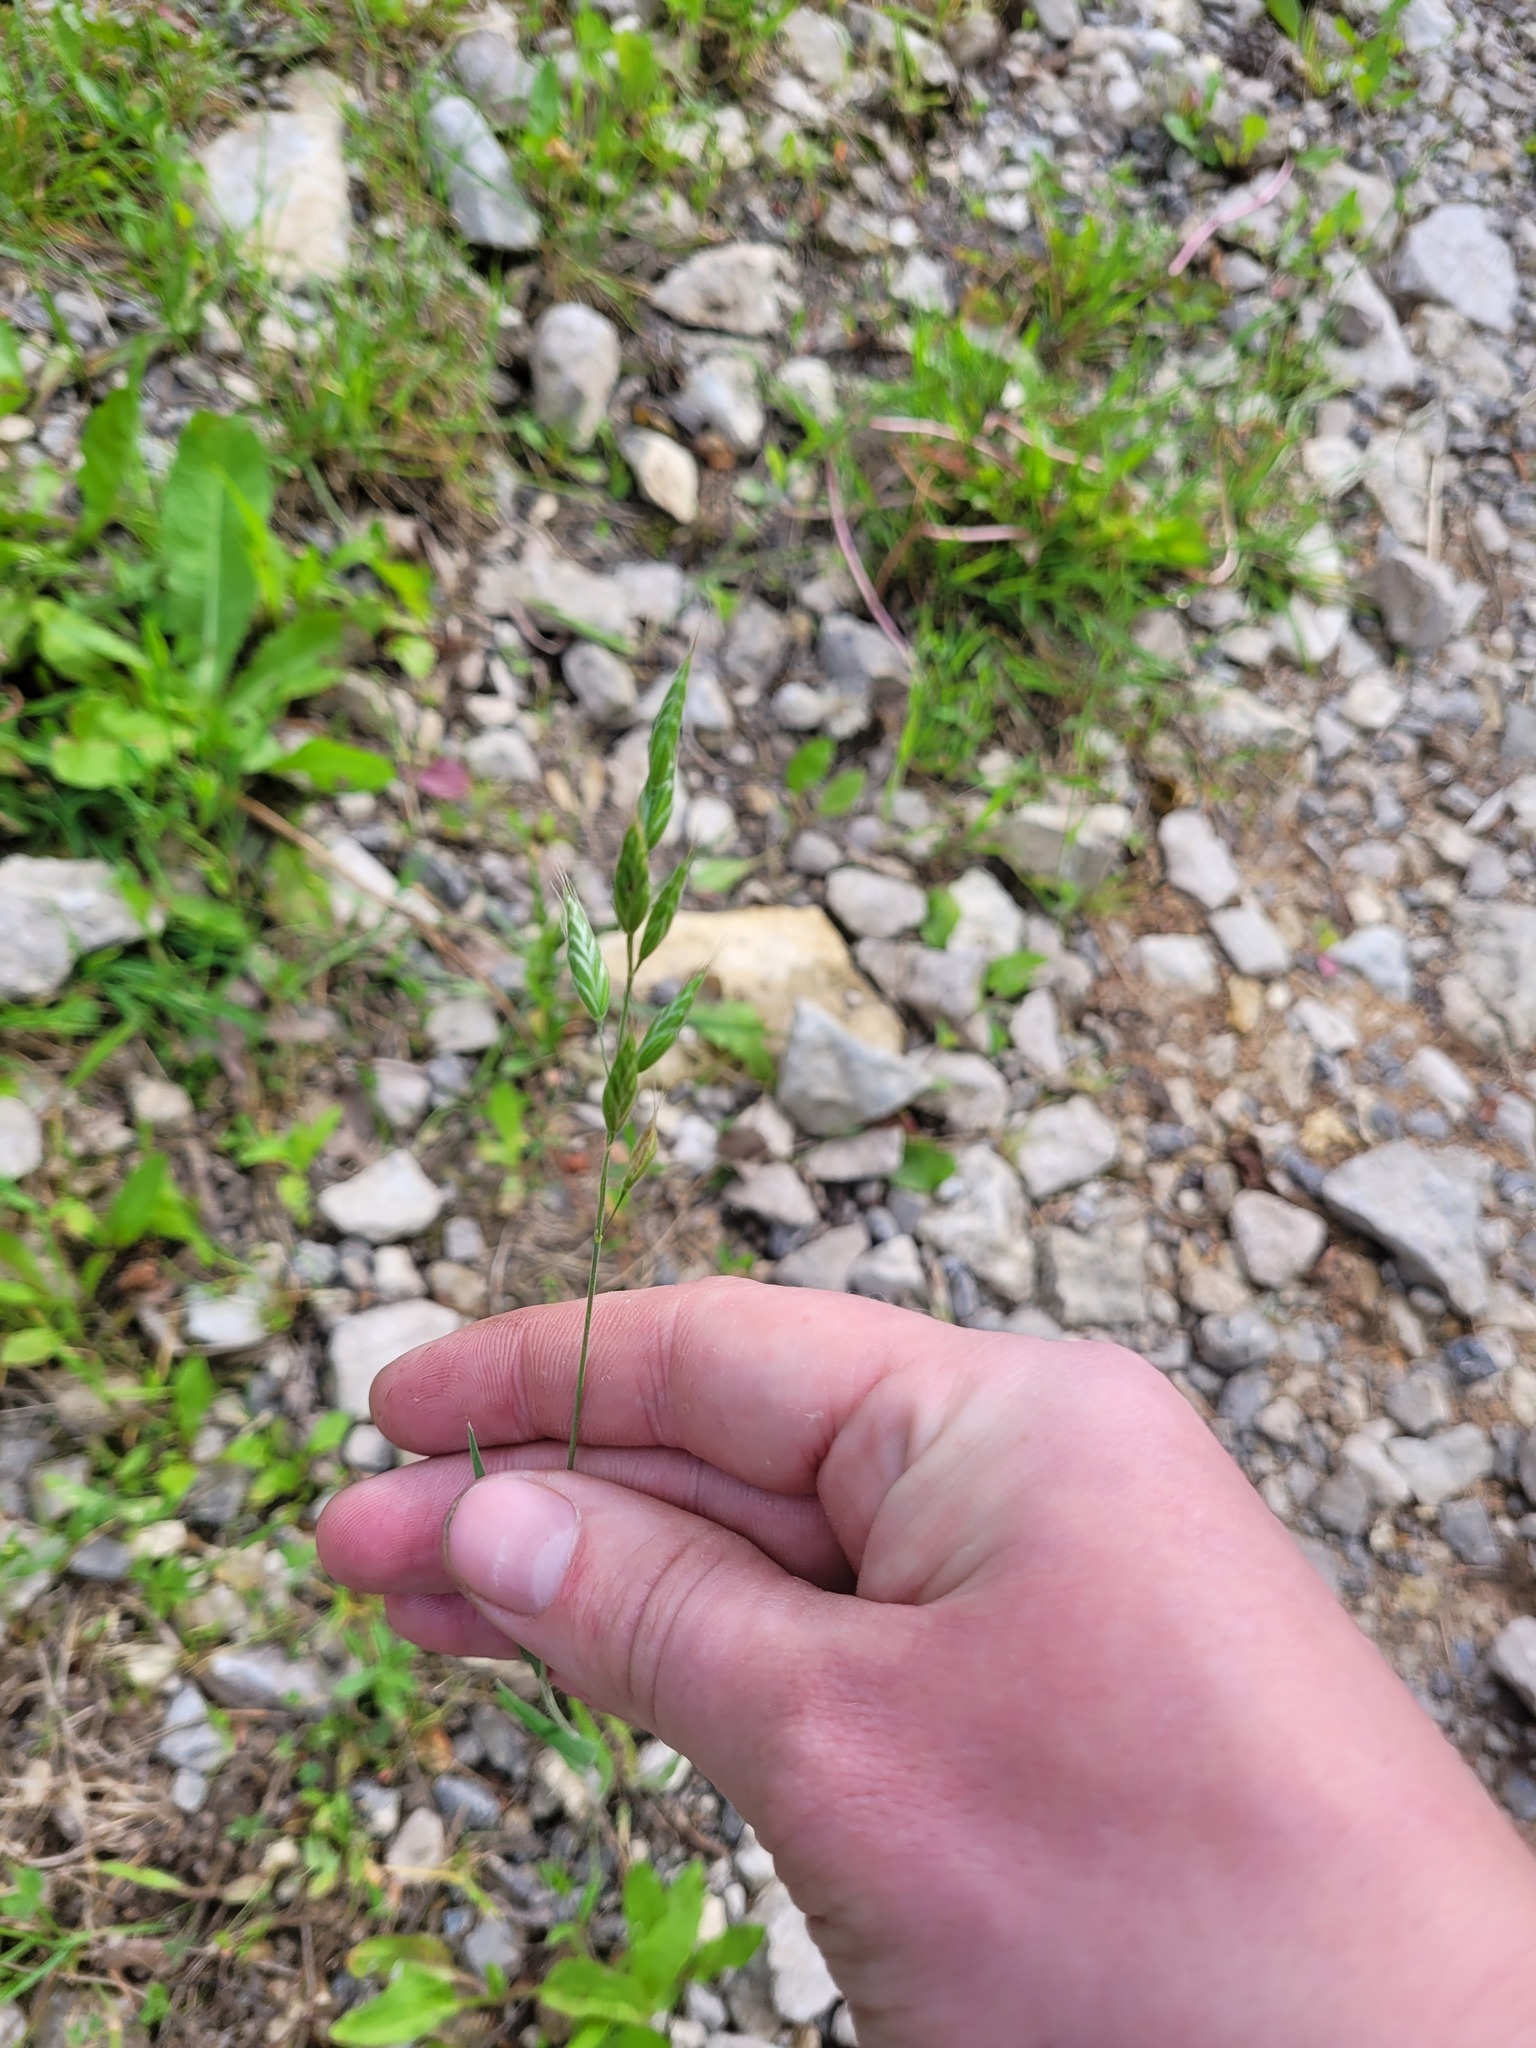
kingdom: Plantae
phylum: Tracheophyta
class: Liliopsida
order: Poales
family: Poaceae
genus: Bromus
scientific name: Bromus hordeaceus
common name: Soft brome
